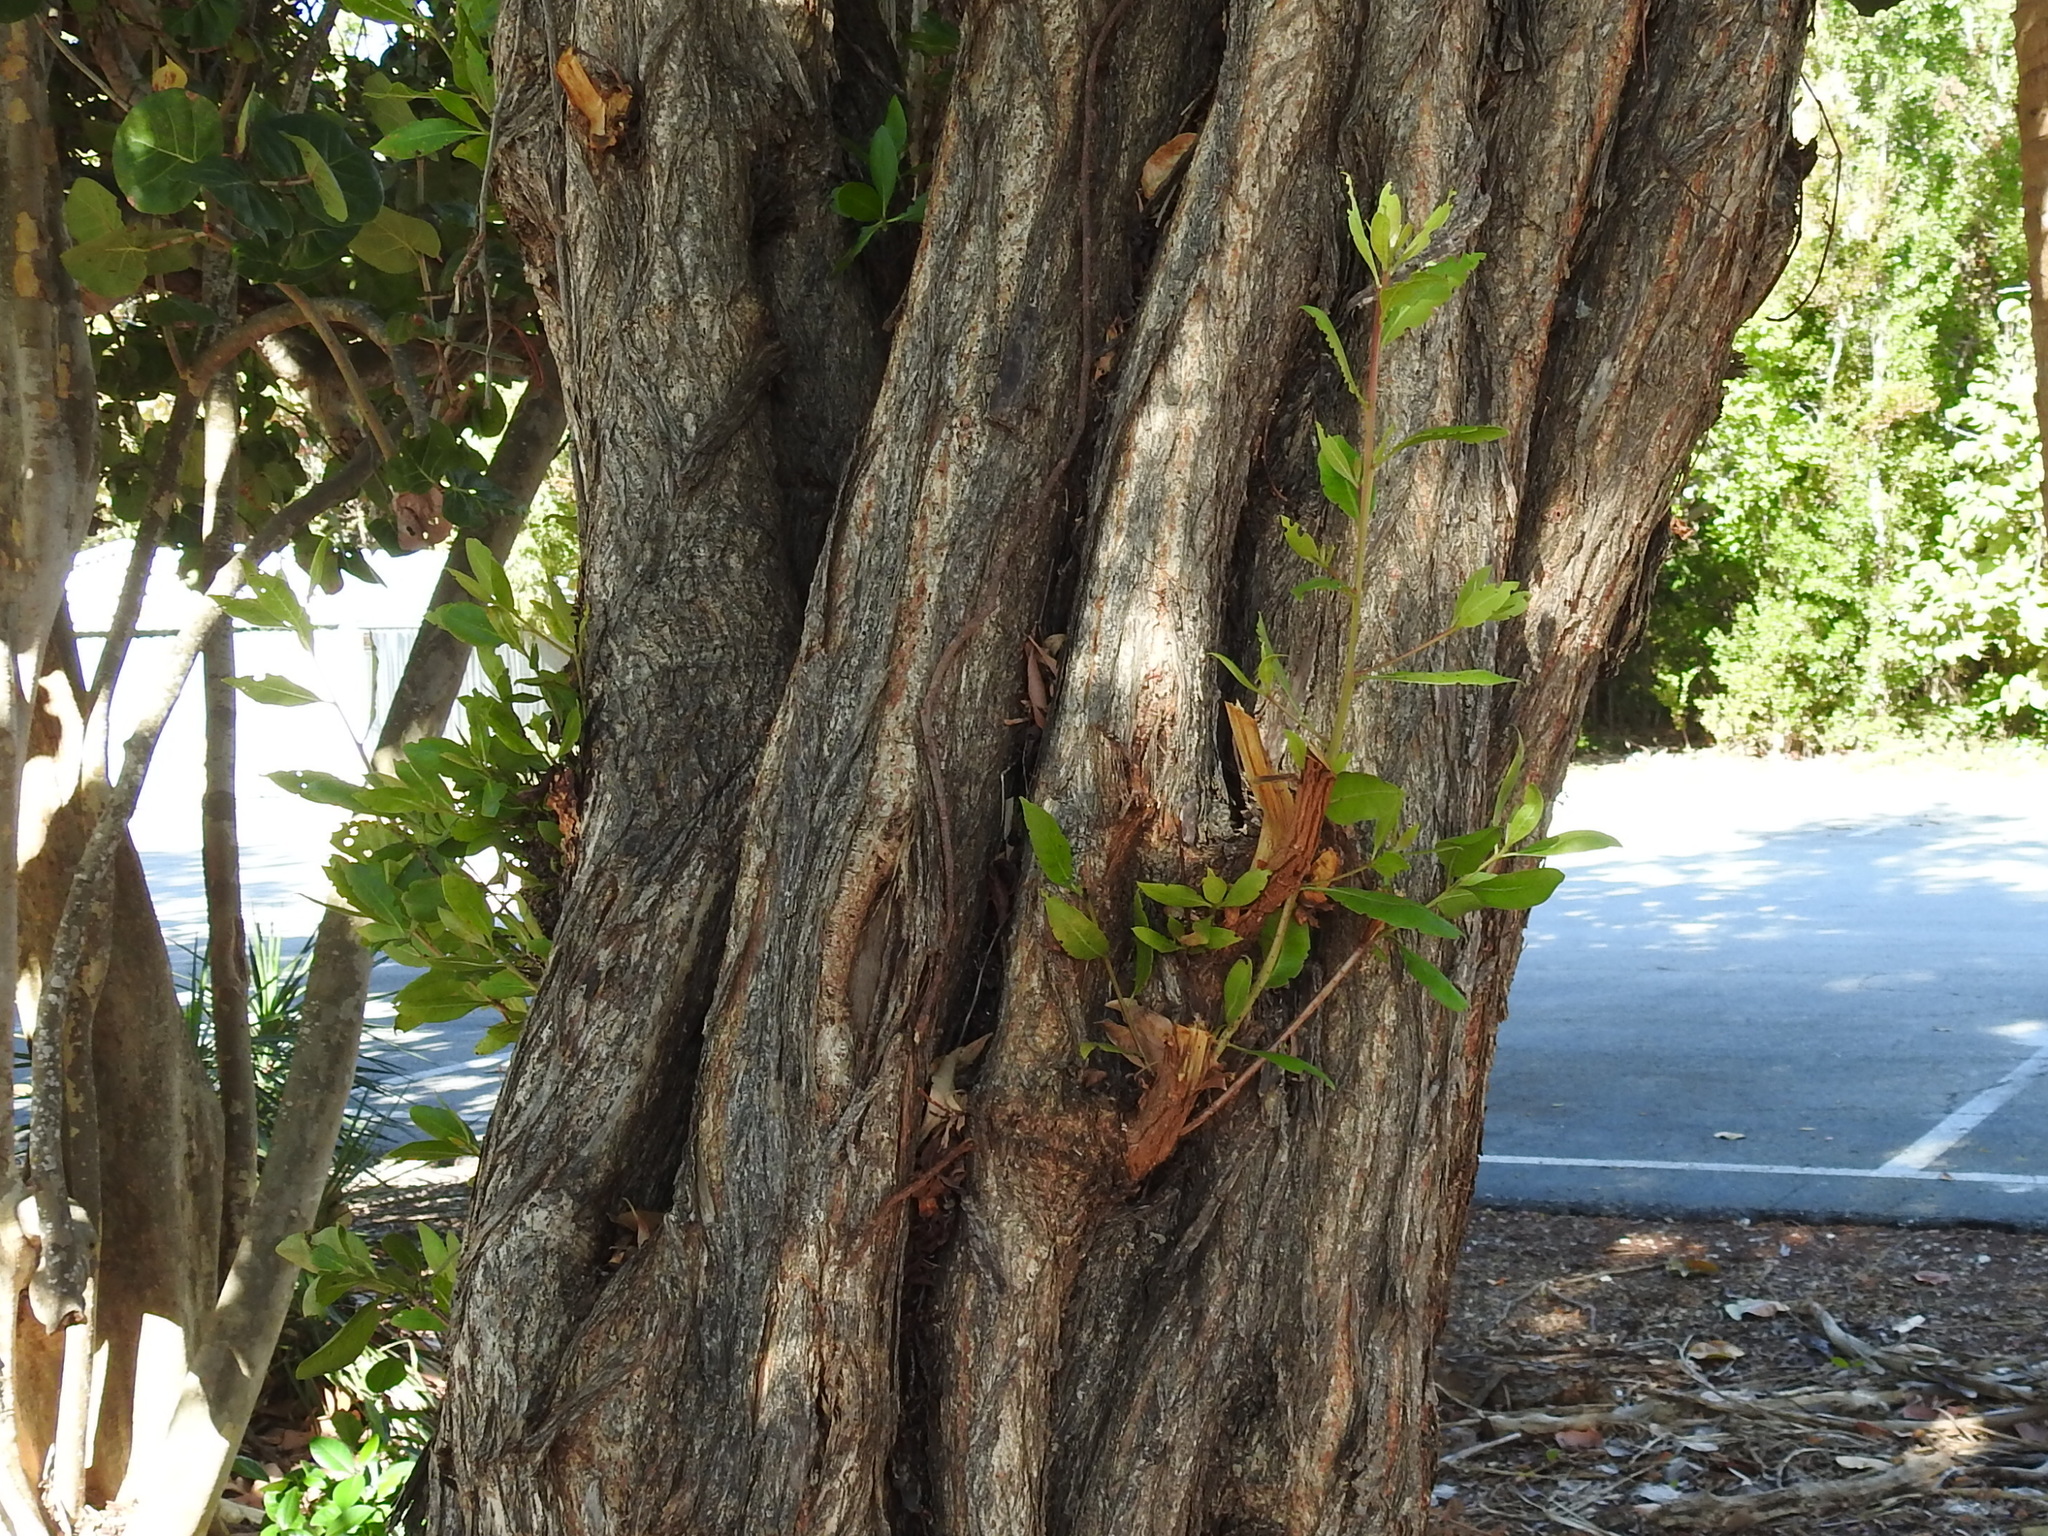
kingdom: Plantae
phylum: Tracheophyta
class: Magnoliopsida
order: Myrtales
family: Combretaceae
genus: Conocarpus
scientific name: Conocarpus erectus
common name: Button mangrove
